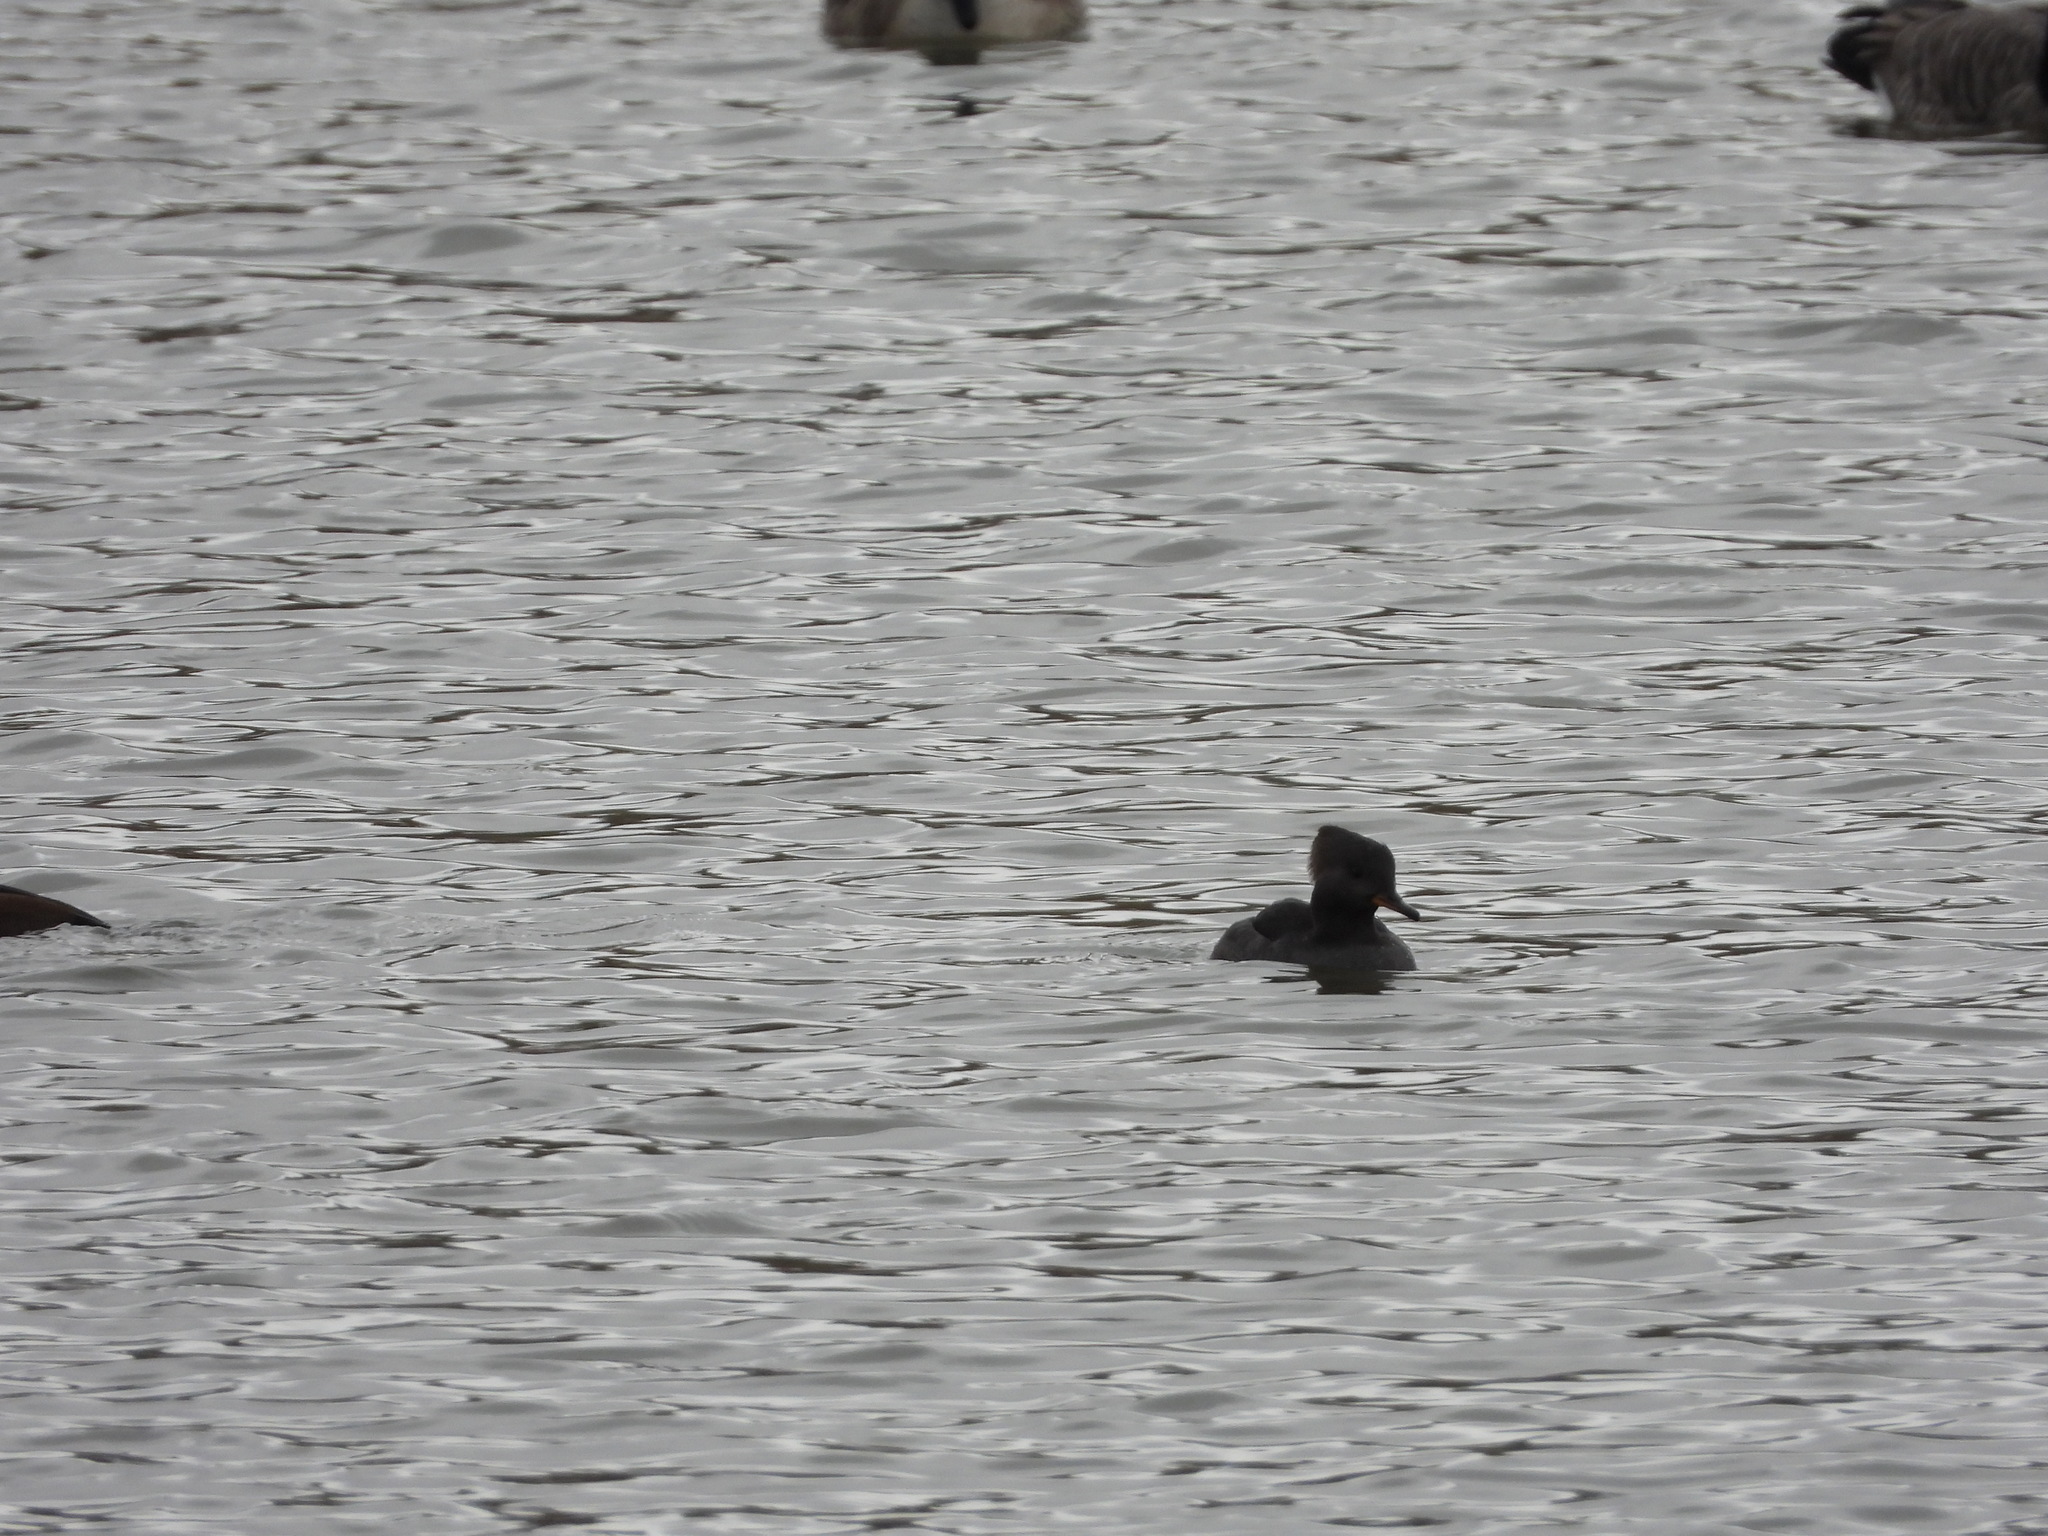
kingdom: Animalia
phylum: Chordata
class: Aves
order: Anseriformes
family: Anatidae
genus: Lophodytes
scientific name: Lophodytes cucullatus
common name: Hooded merganser
